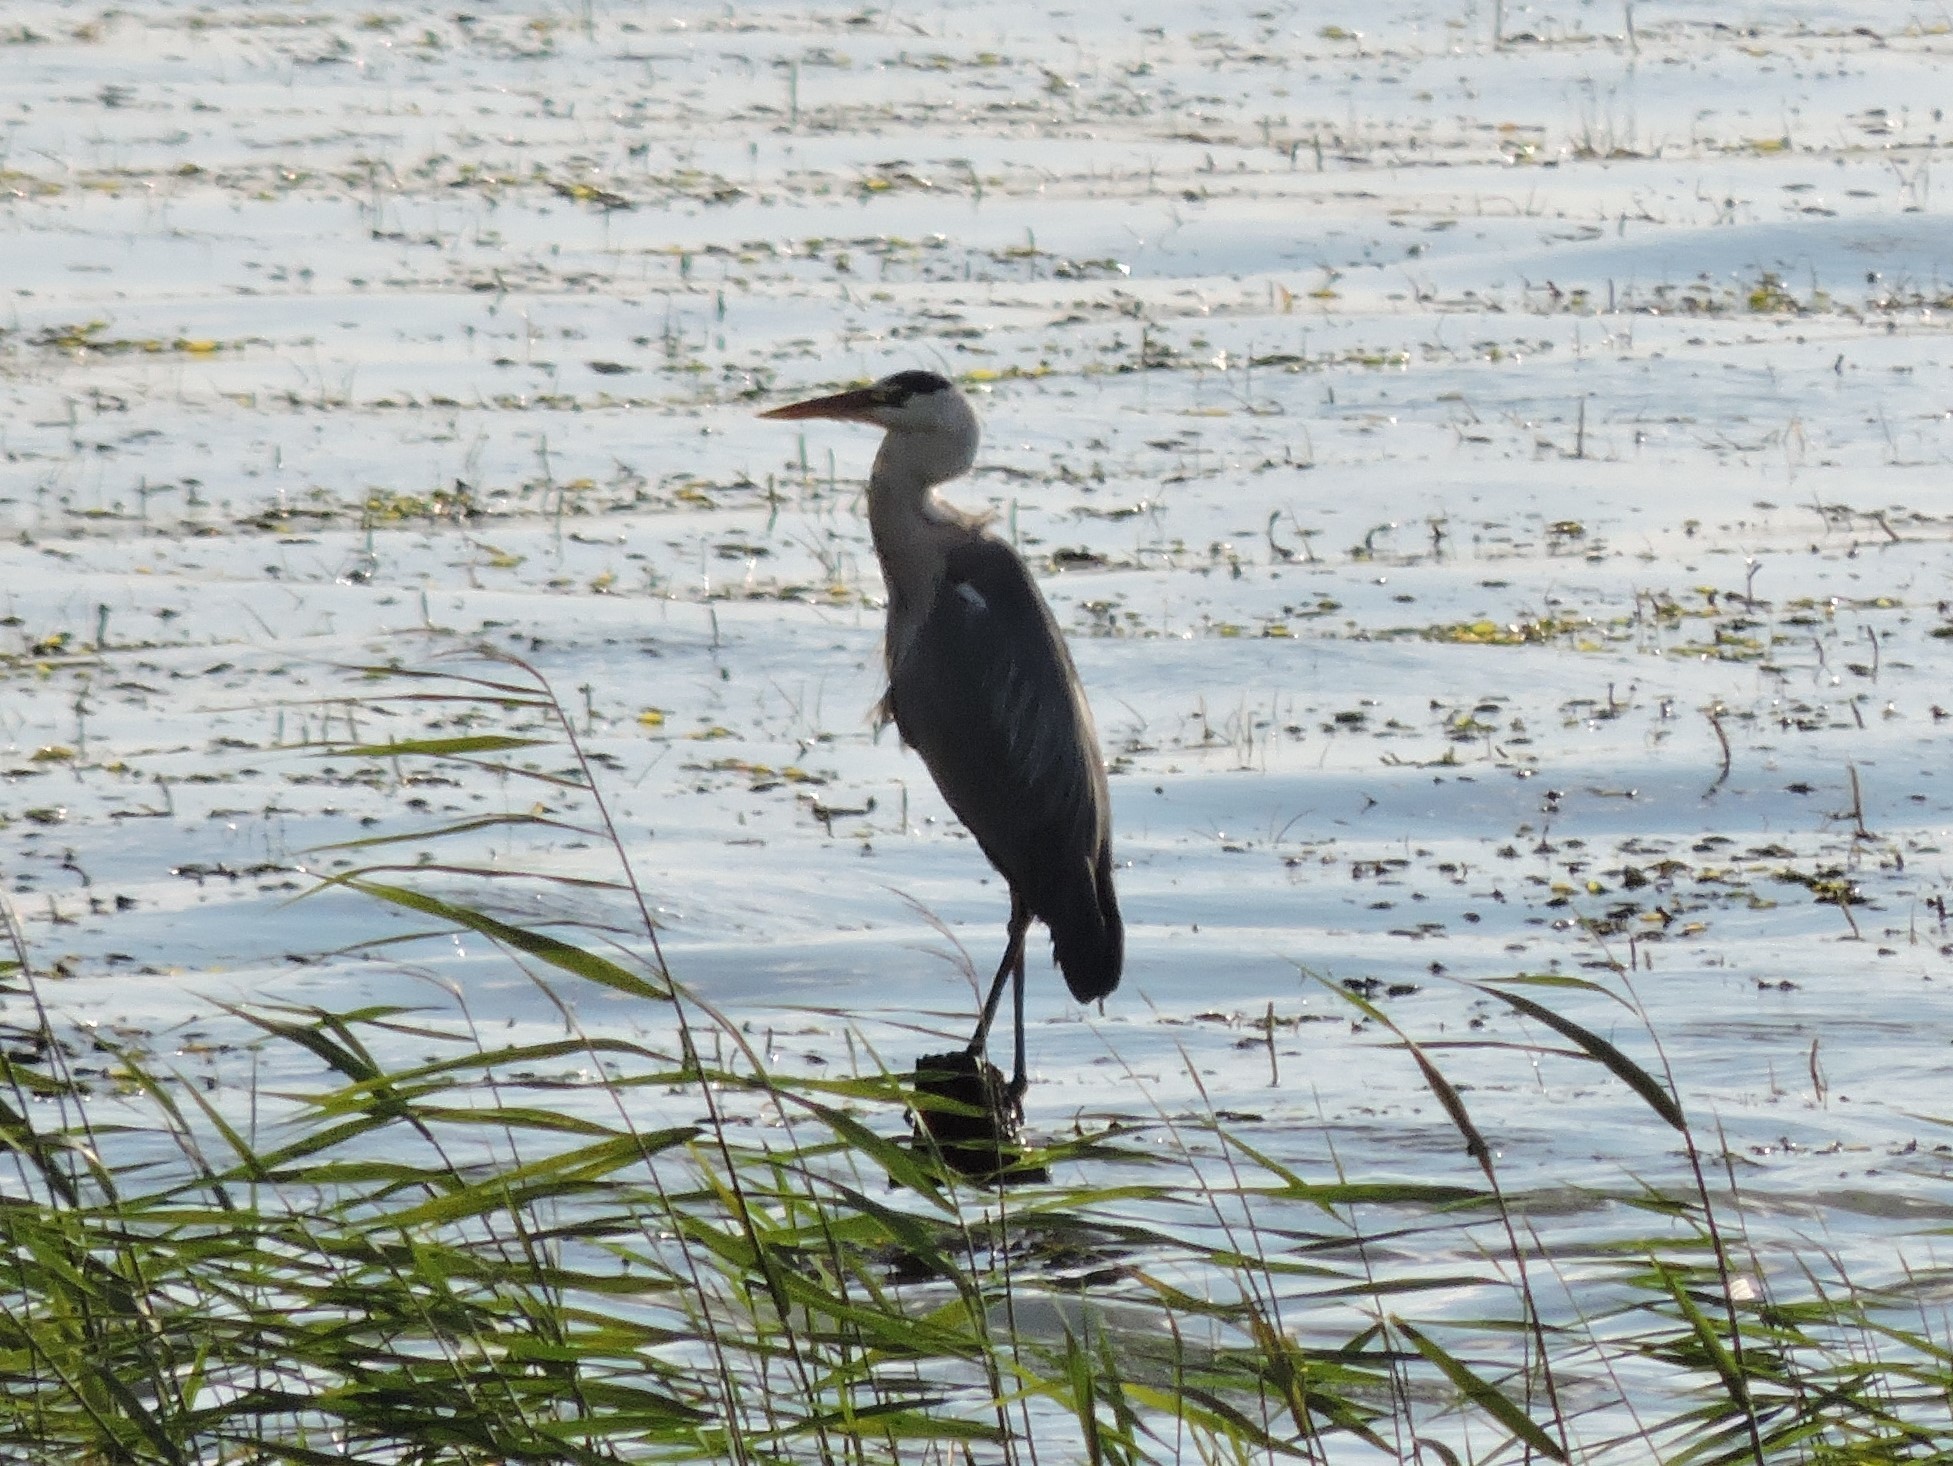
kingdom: Animalia
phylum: Chordata
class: Aves
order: Pelecaniformes
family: Ardeidae
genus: Ardea
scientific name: Ardea cinerea
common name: Grey heron
